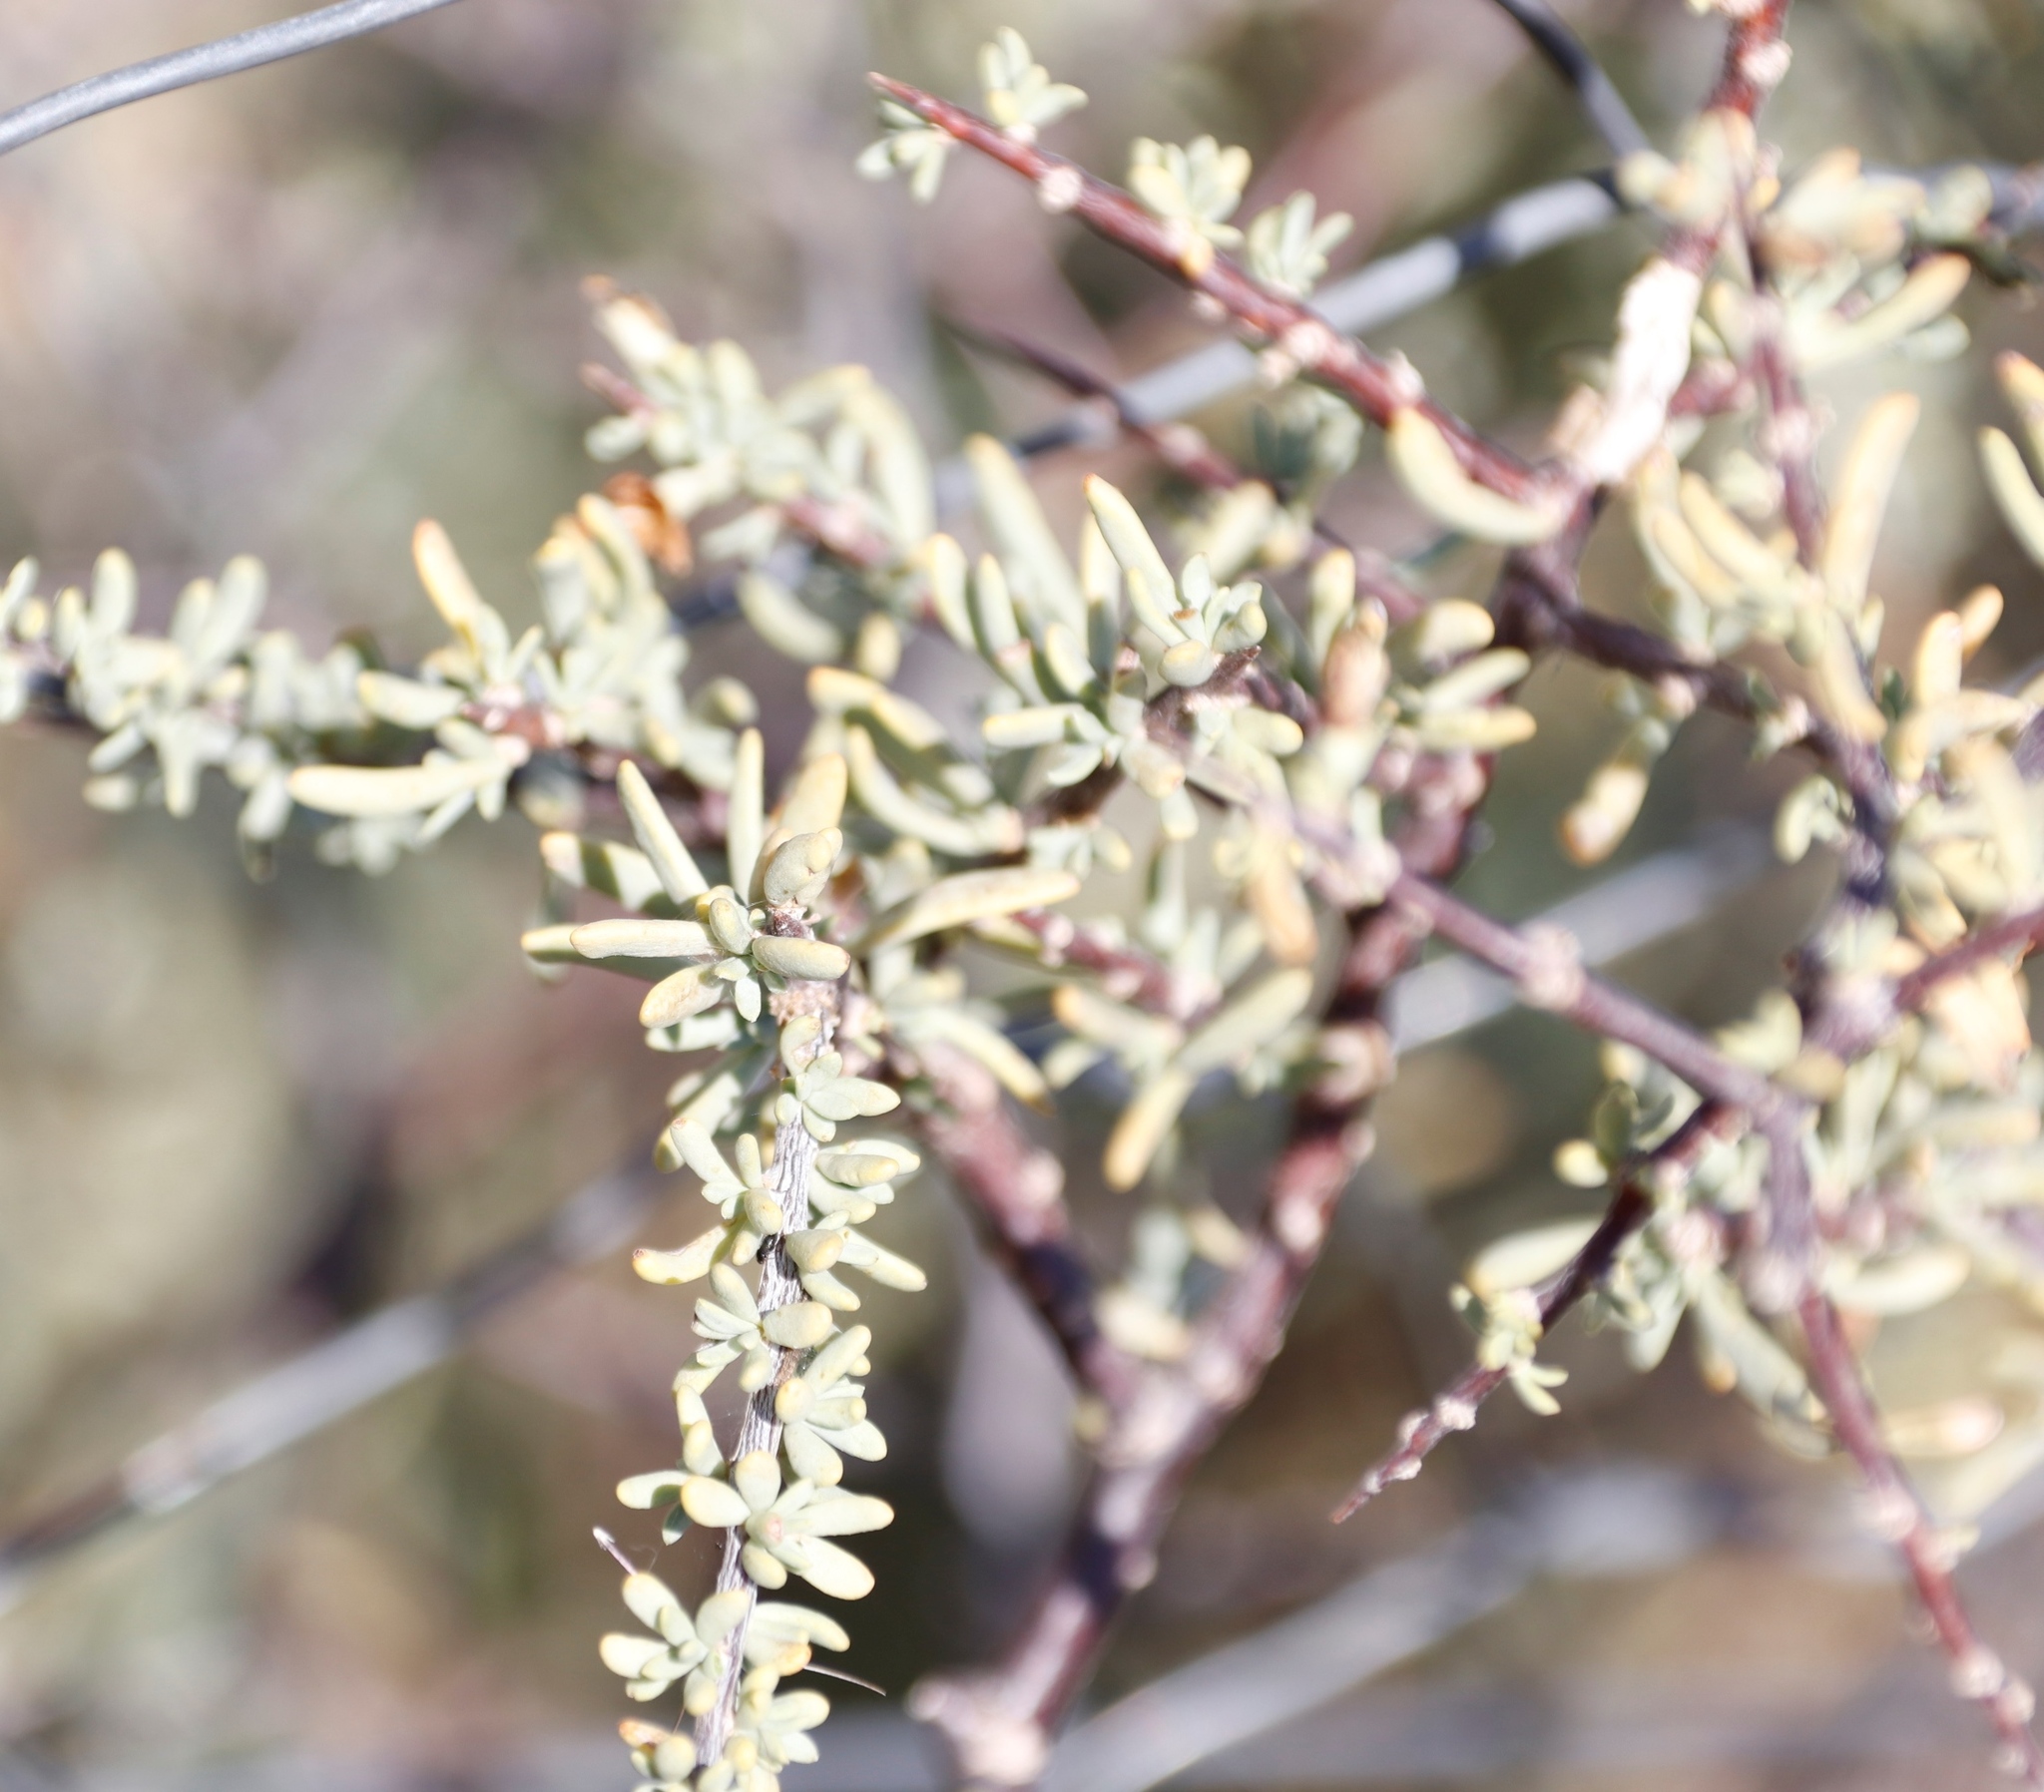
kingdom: Plantae
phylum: Tracheophyta
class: Magnoliopsida
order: Solanales
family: Solanaceae
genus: Lycium
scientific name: Lycium oxycarpum
